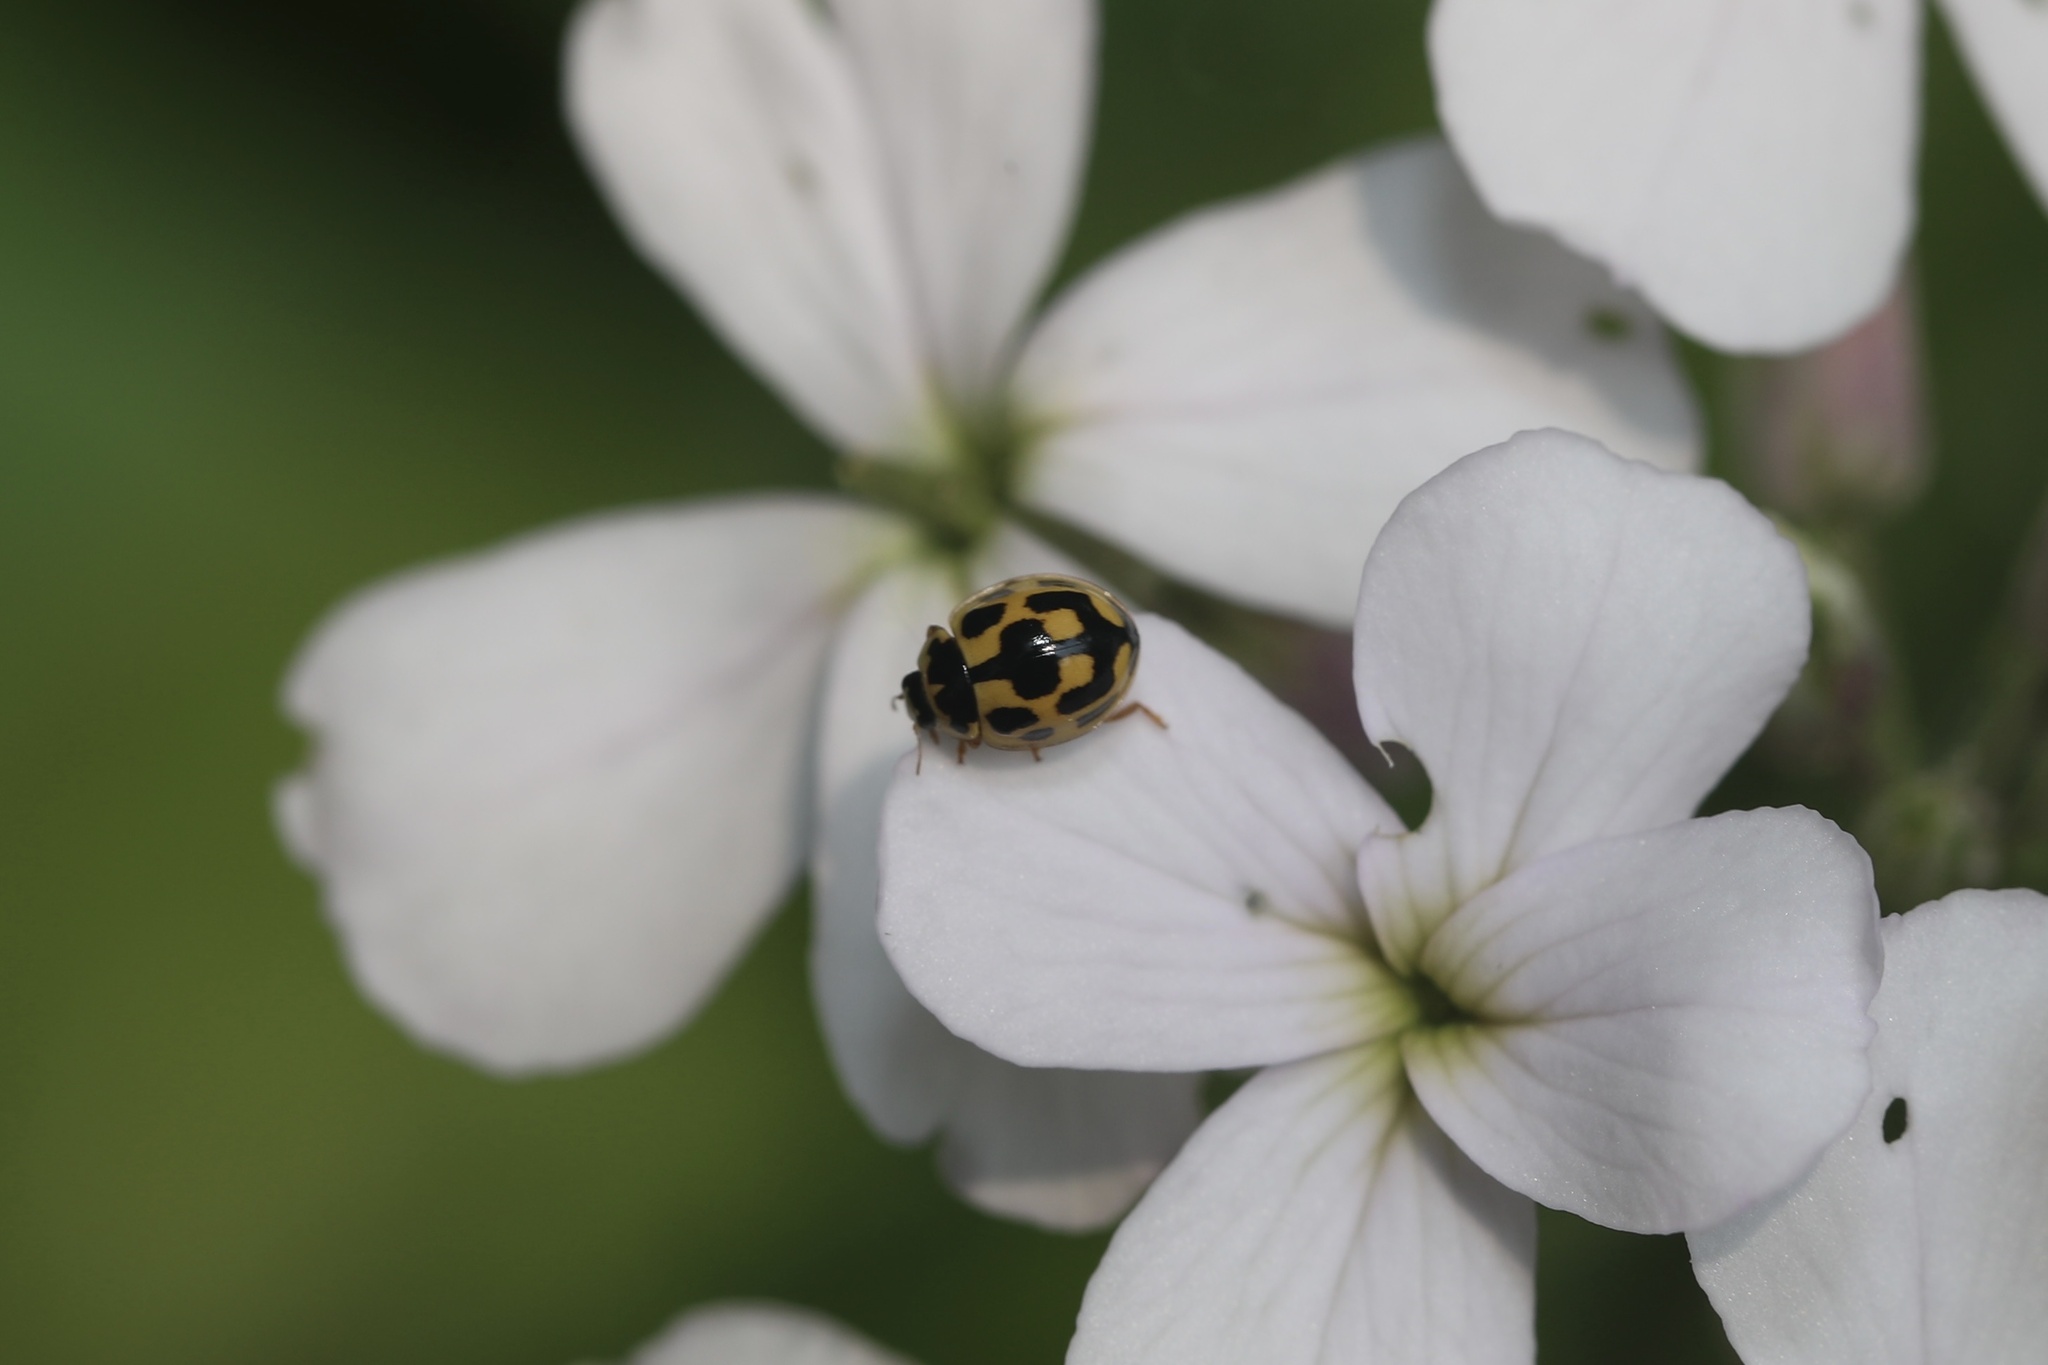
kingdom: Animalia
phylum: Arthropoda
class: Insecta
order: Coleoptera
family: Coccinellidae
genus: Propylaea
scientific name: Propylaea quatuordecimpunctata
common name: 14-spotted ladybird beetle
